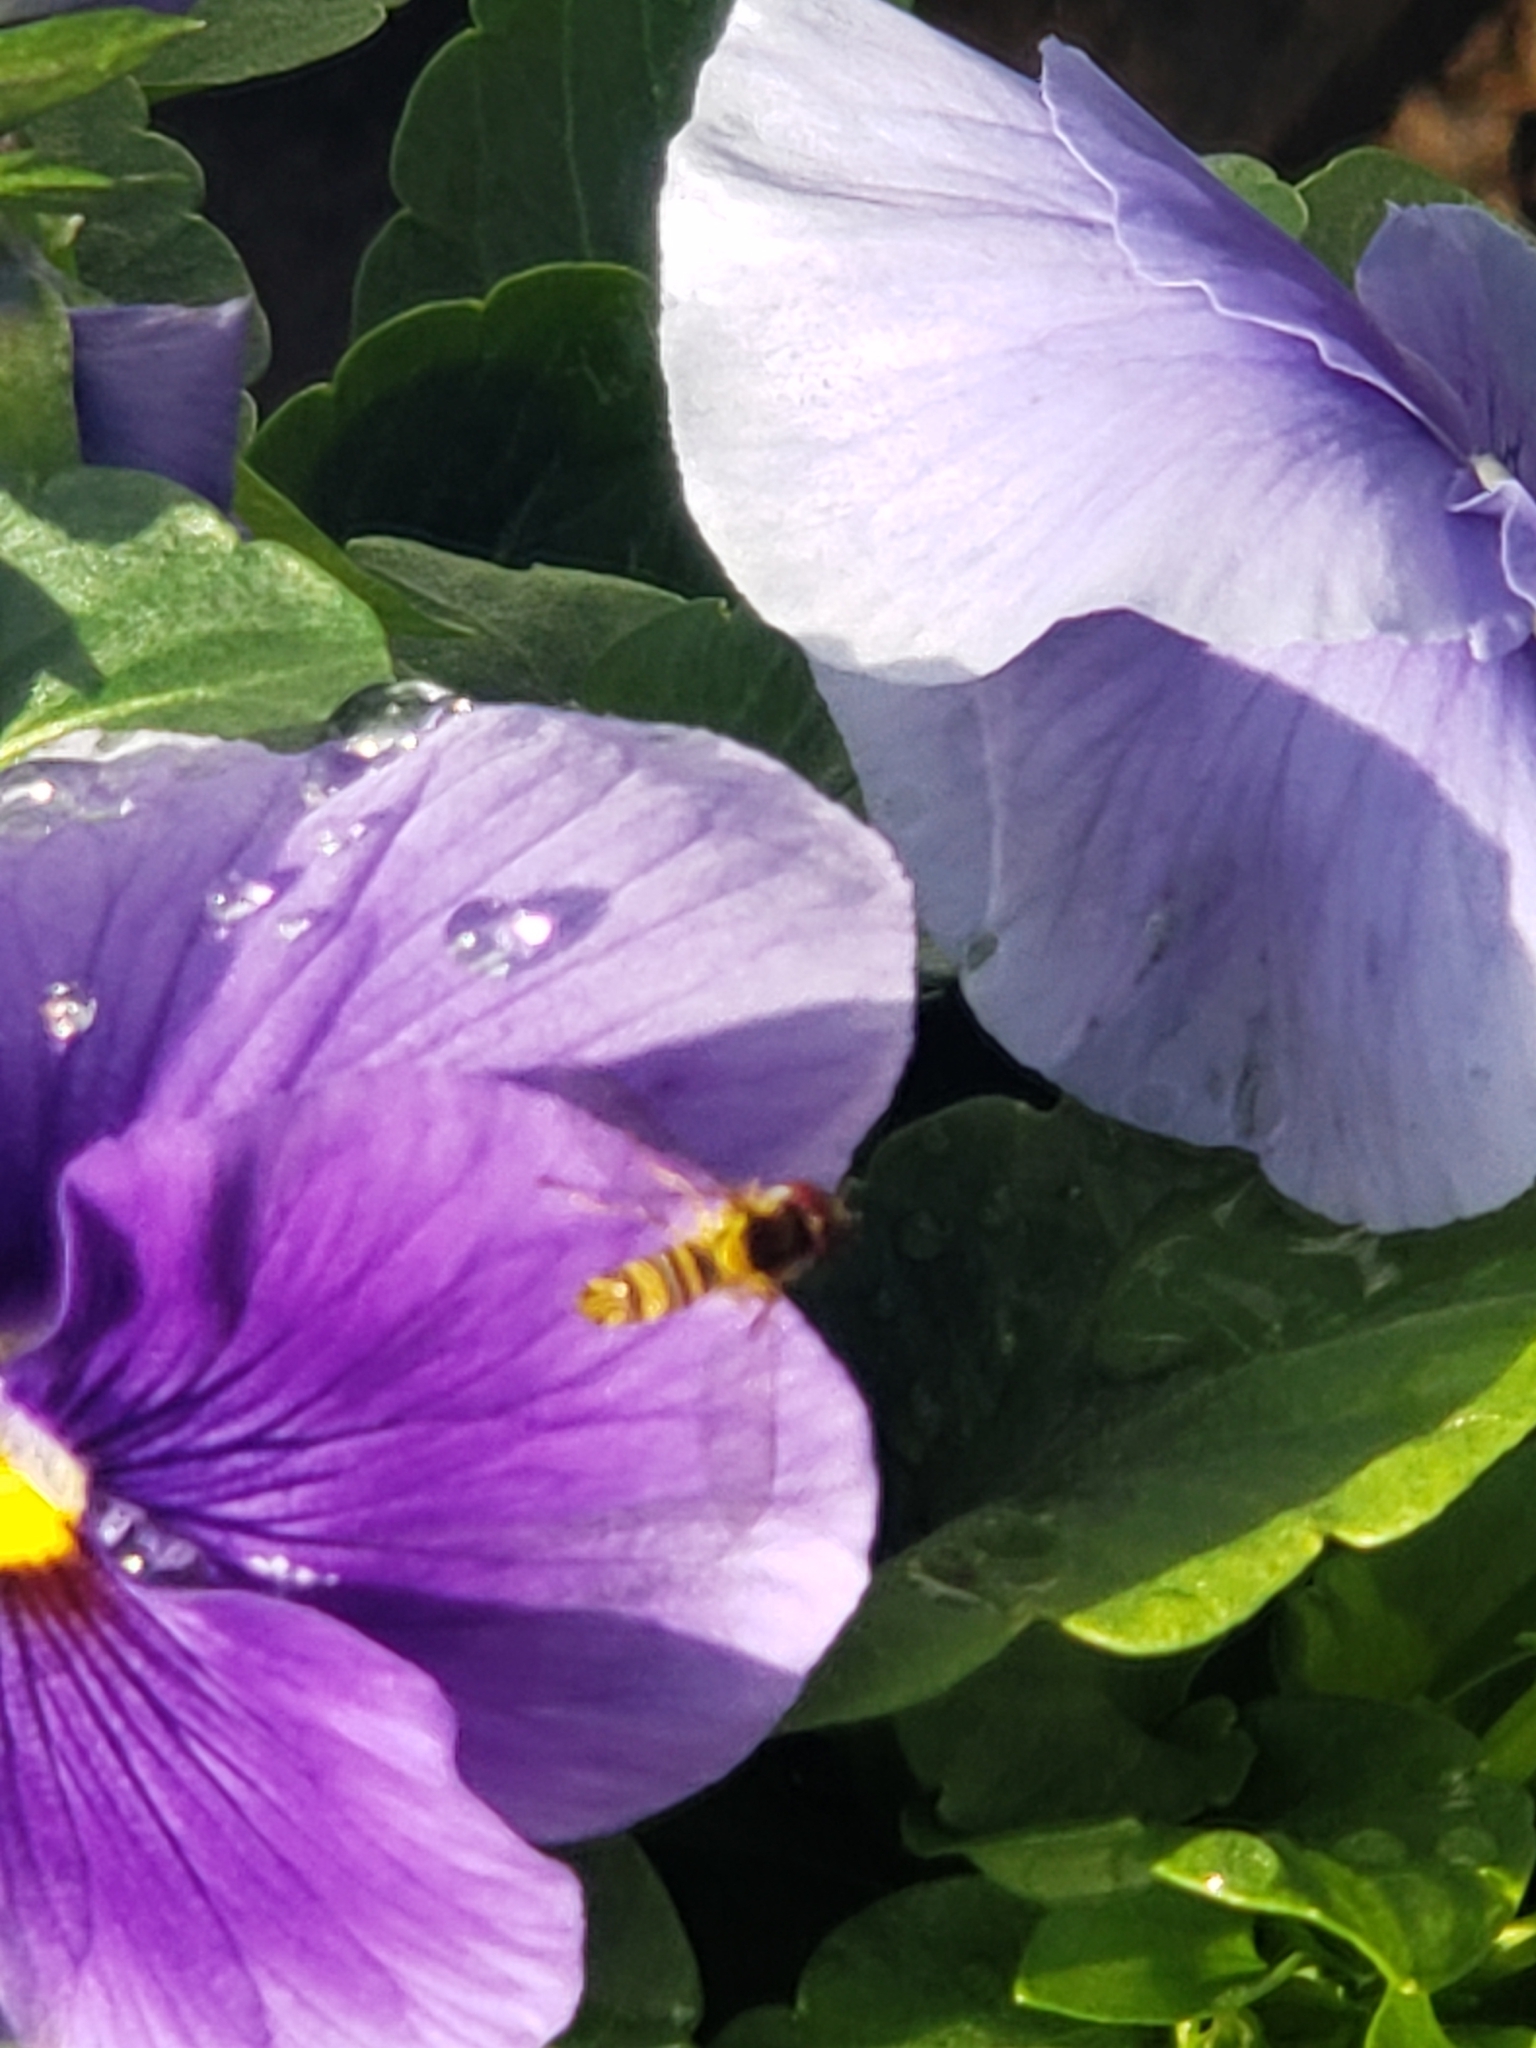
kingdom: Animalia
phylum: Arthropoda
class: Insecta
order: Diptera
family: Syrphidae
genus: Allograpta
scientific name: Allograpta obliqua
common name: Common oblique syrphid
